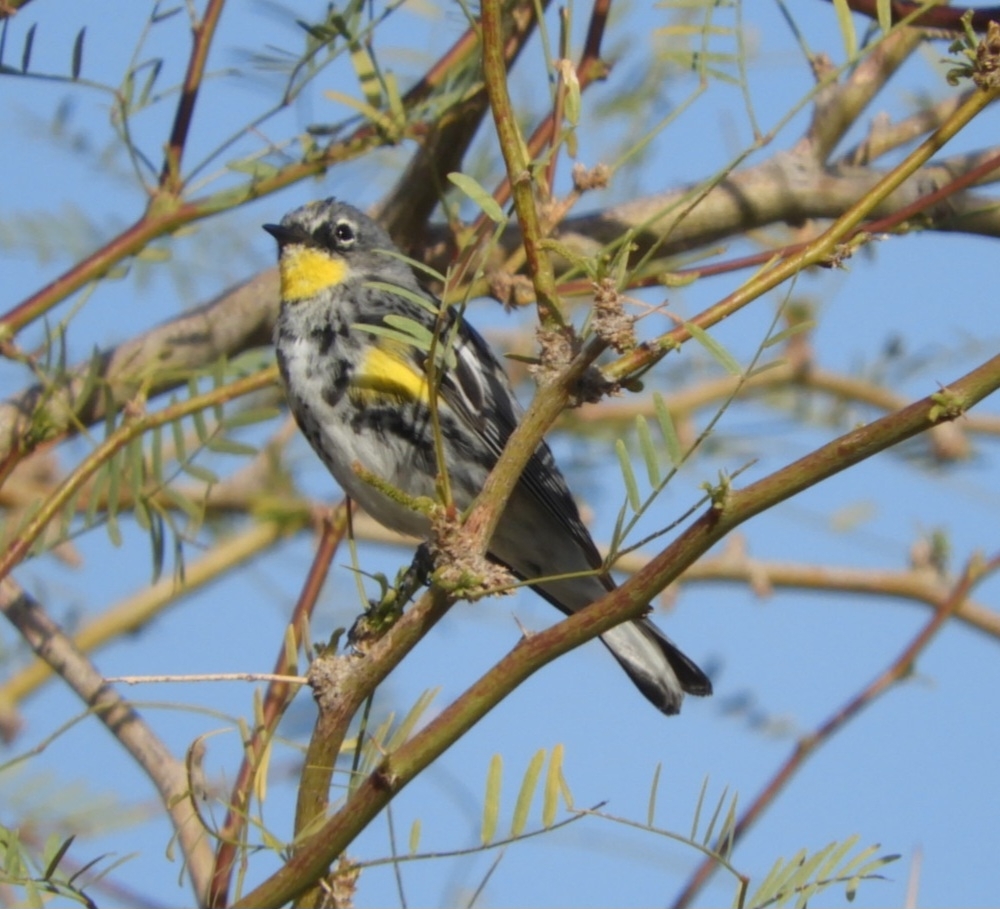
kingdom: Animalia
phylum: Chordata
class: Aves
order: Passeriformes
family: Parulidae
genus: Setophaga
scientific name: Setophaga coronata
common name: Myrtle warbler
